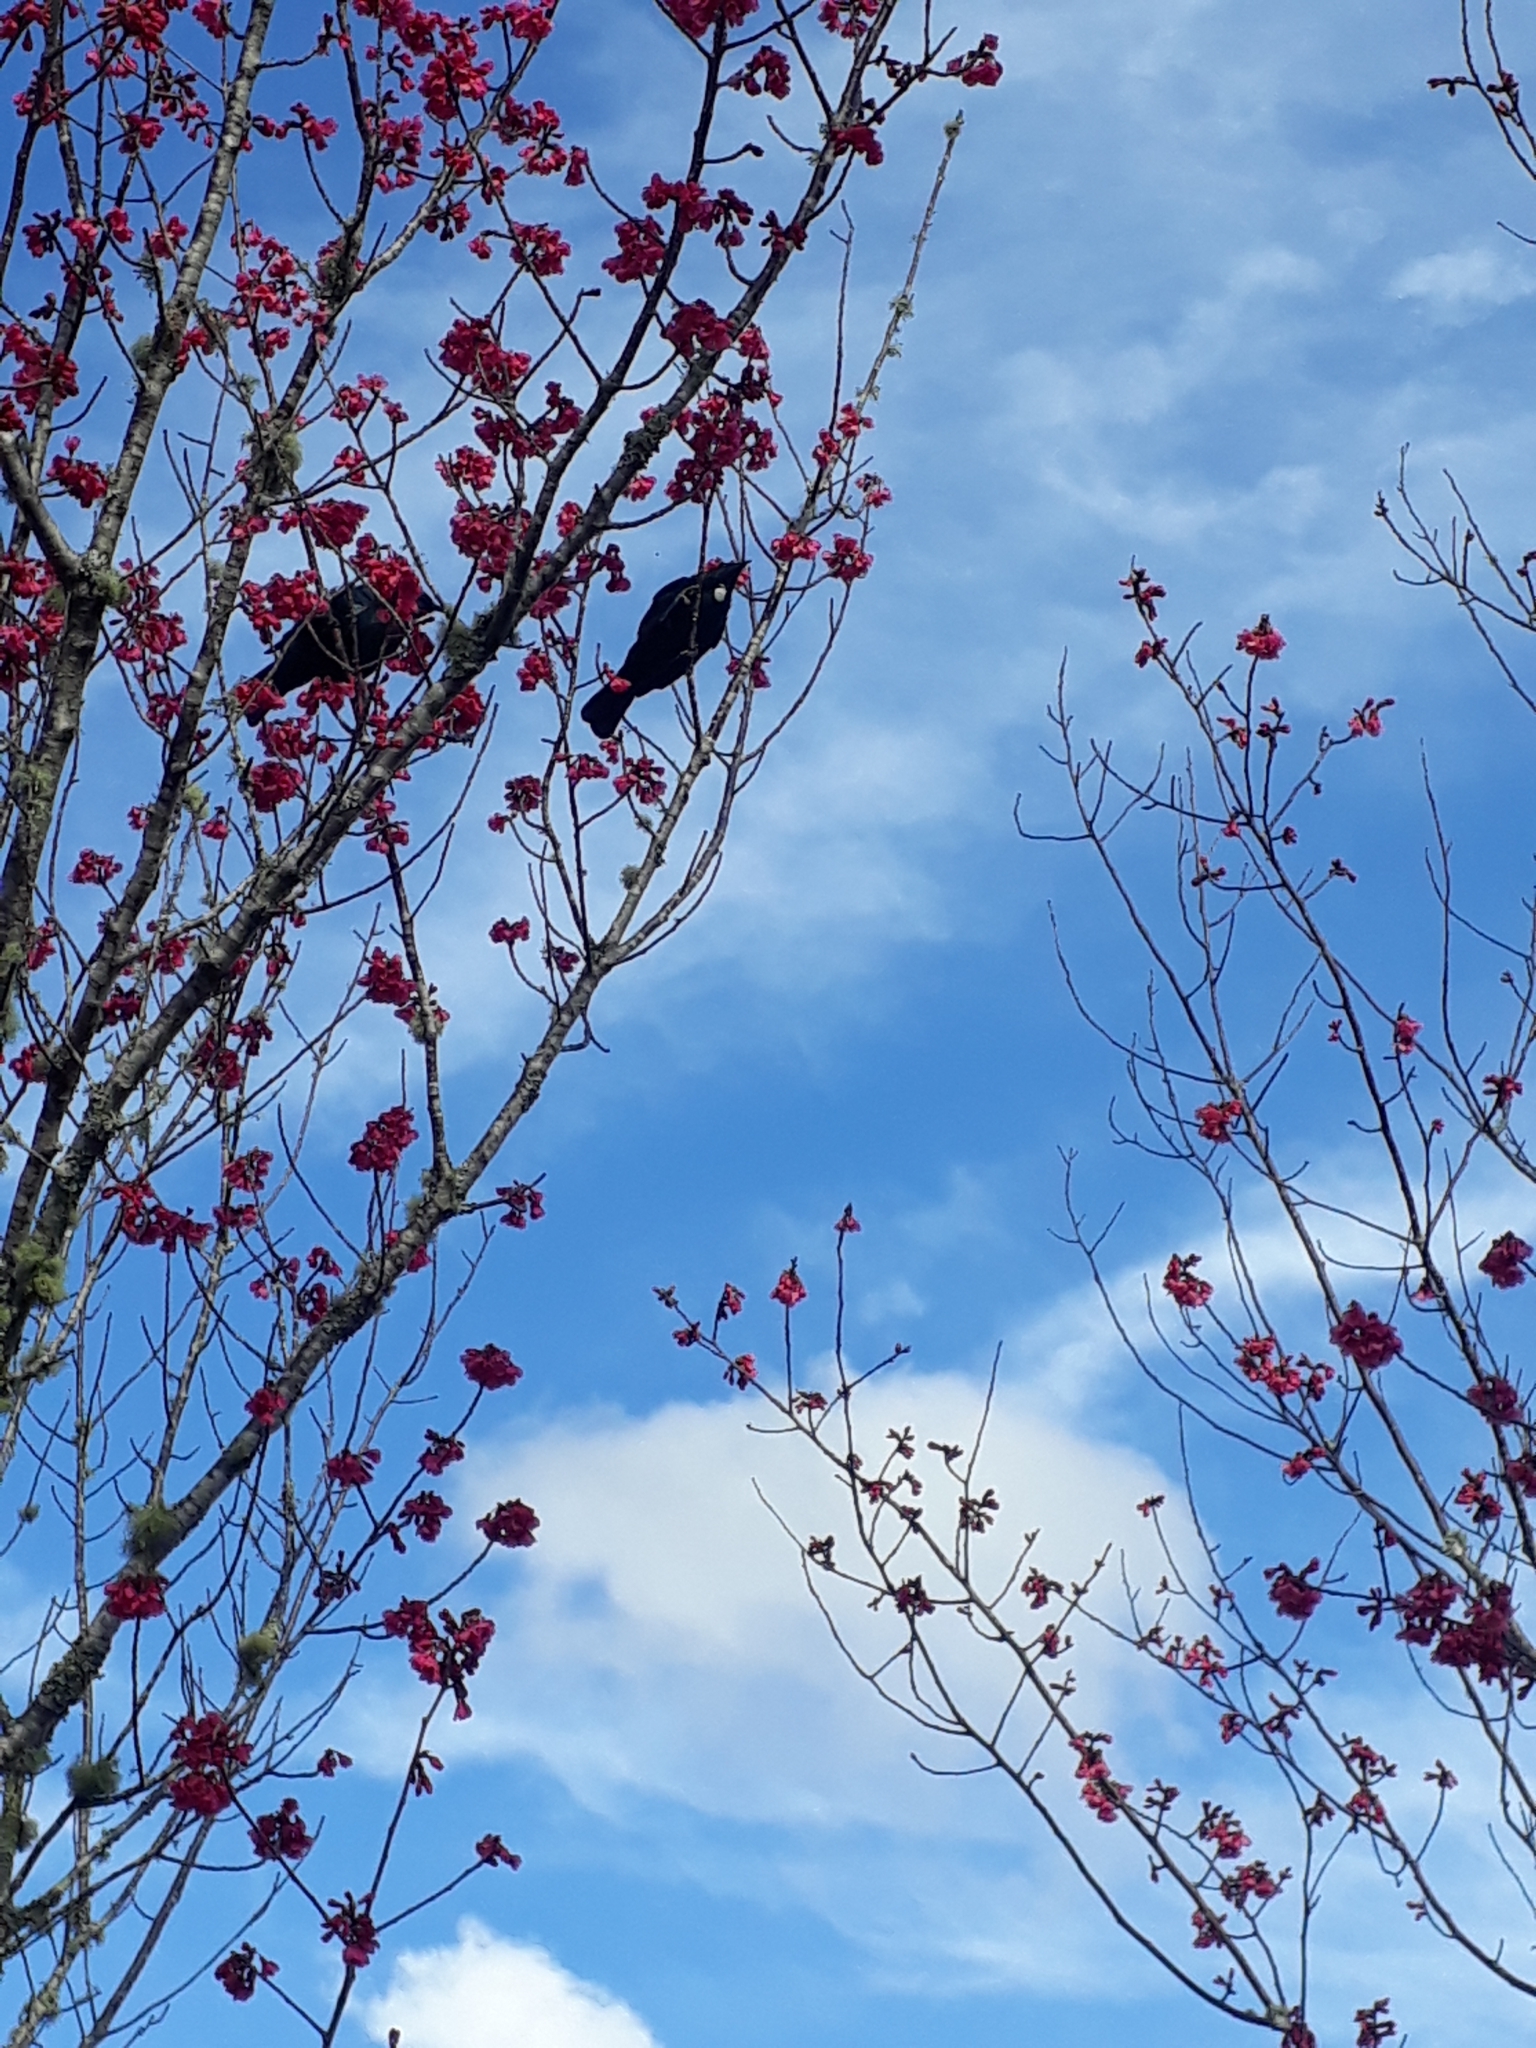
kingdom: Animalia
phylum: Chordata
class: Aves
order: Passeriformes
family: Meliphagidae
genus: Prosthemadera
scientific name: Prosthemadera novaeseelandiae
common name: Tui
